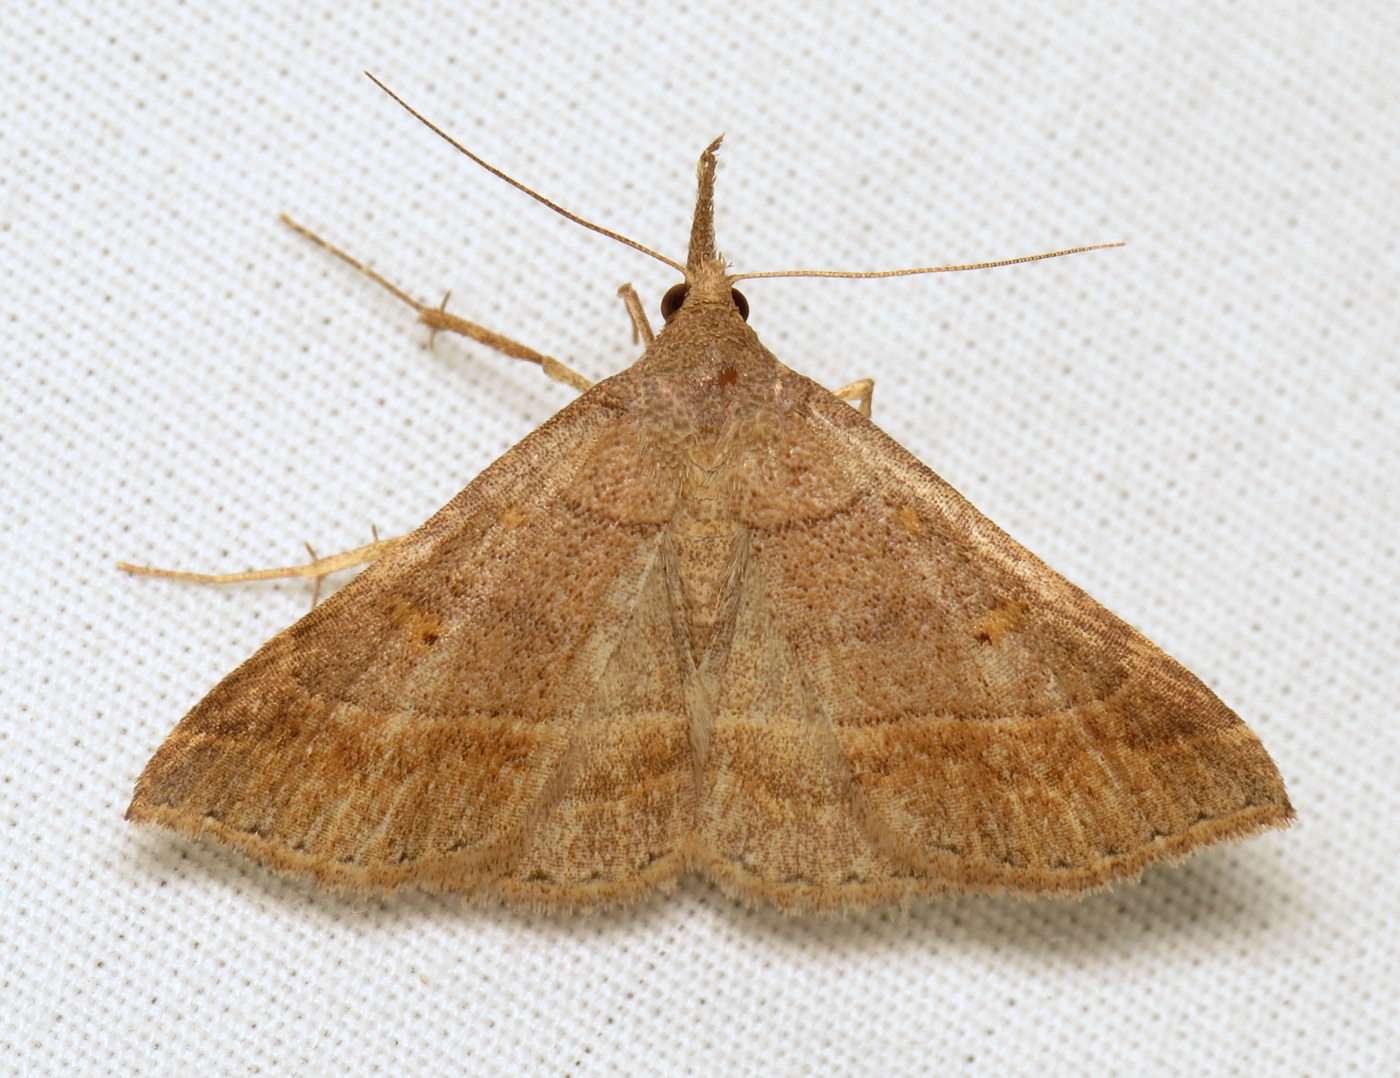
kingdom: Animalia
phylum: Arthropoda
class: Insecta
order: Lepidoptera
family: Erebidae
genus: Renia
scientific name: Renia flavipunctalis
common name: Yellow-spotted renia moth
